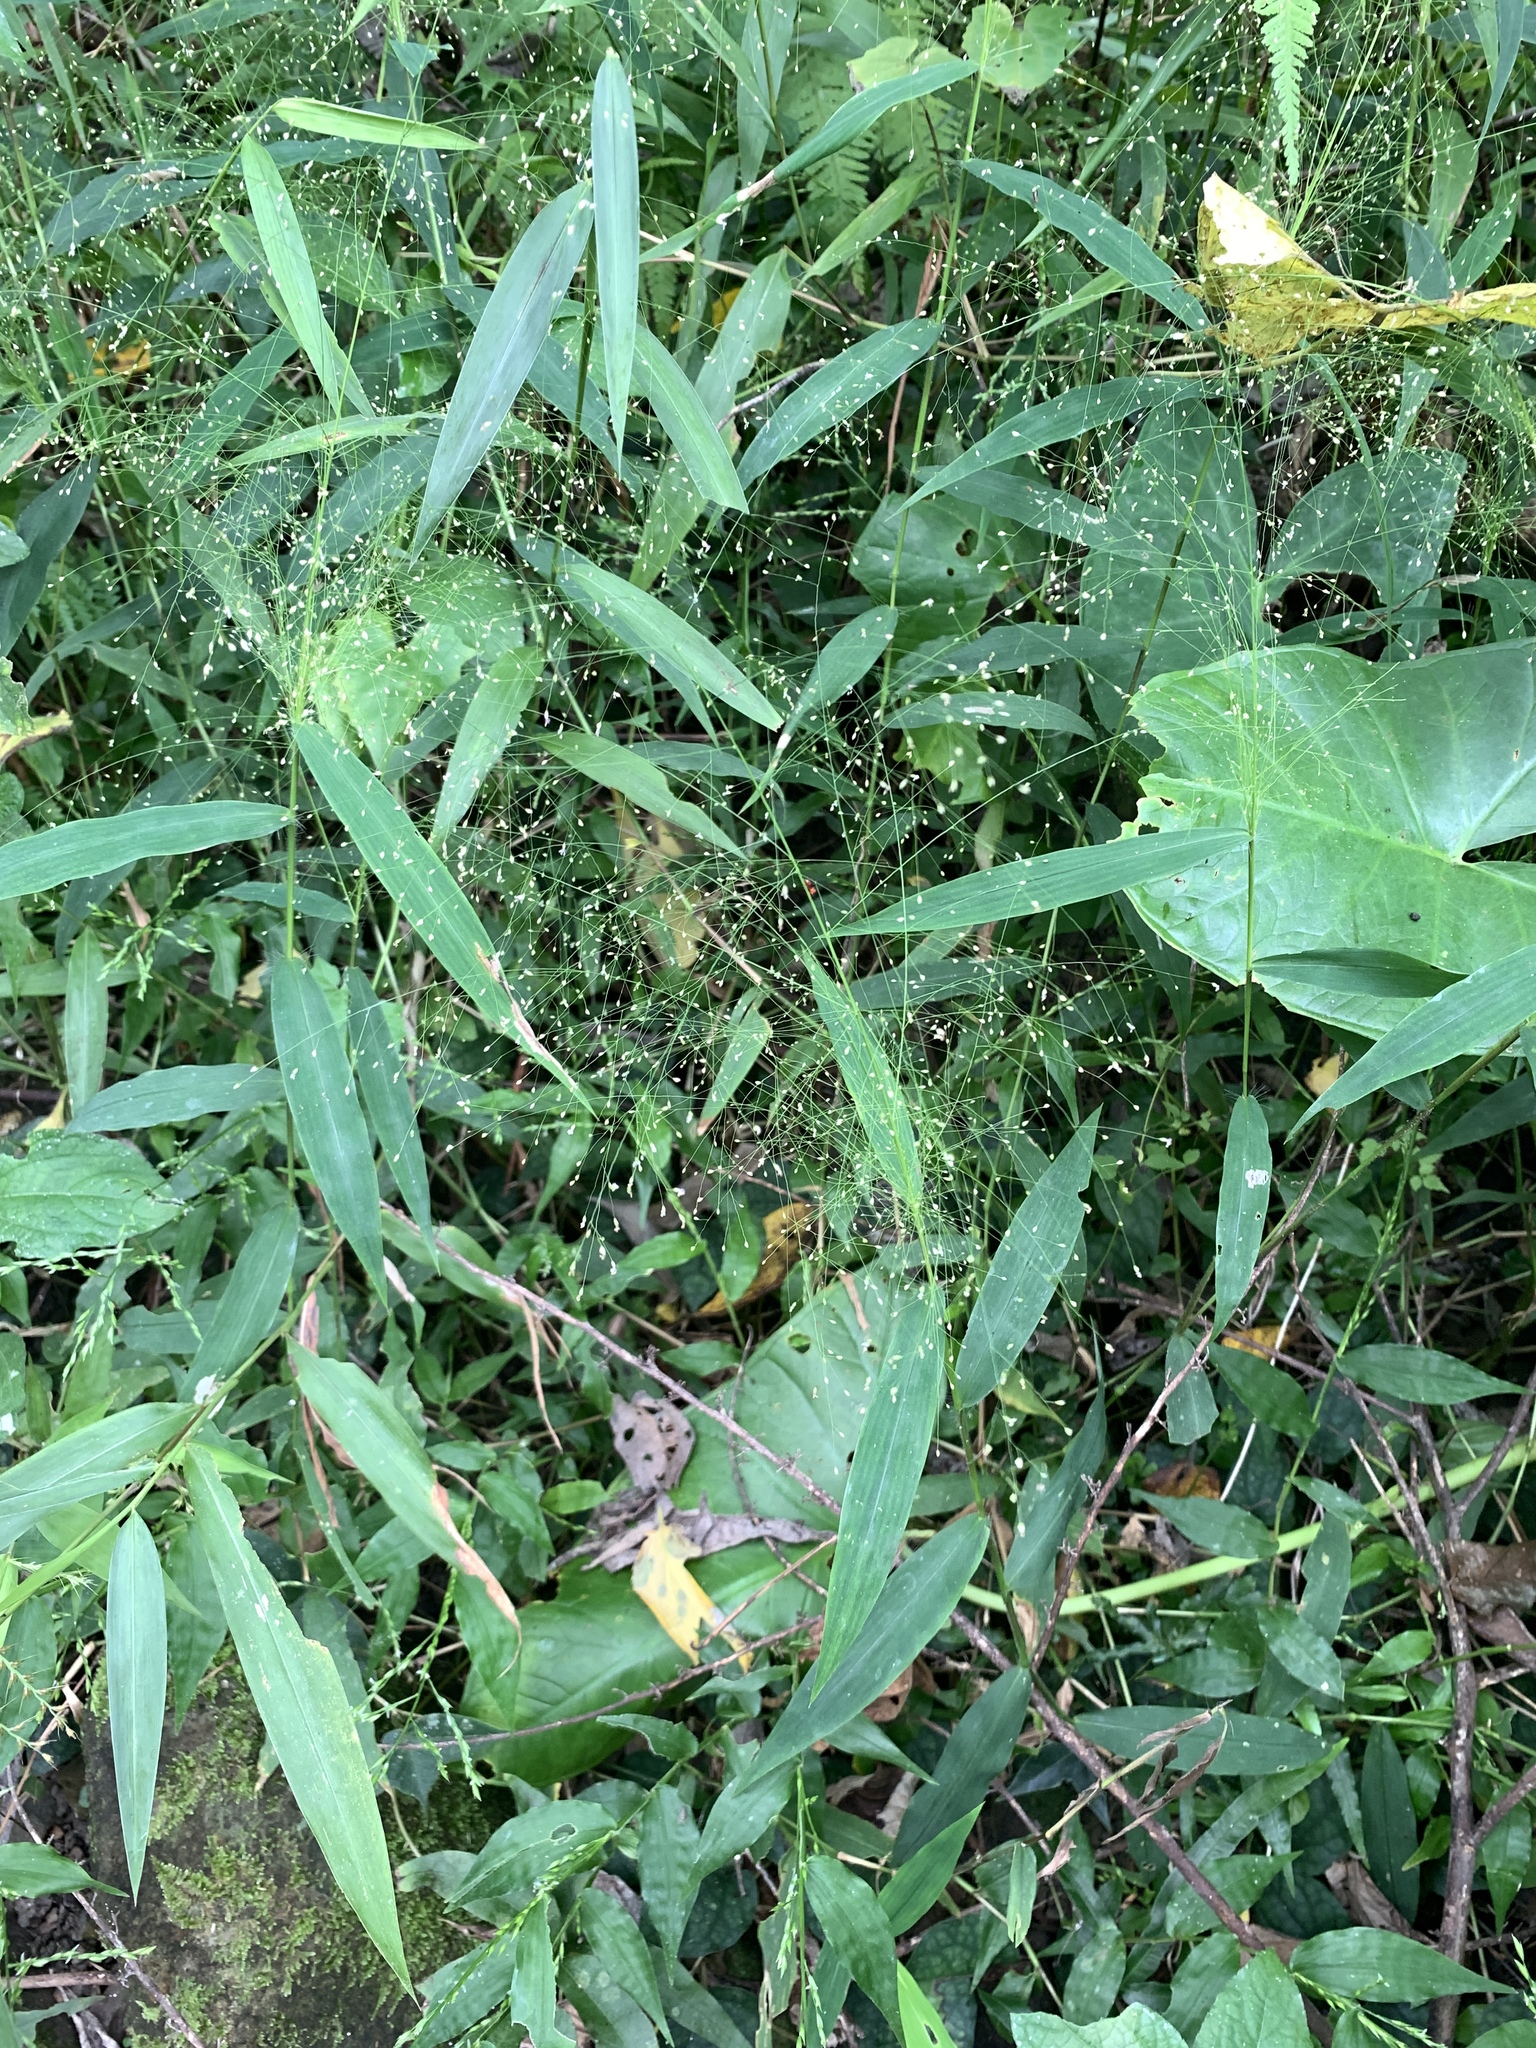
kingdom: Plantae
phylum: Tracheophyta
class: Liliopsida
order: Poales
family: Poaceae
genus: Cyrtococcum
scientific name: Cyrtococcum accrescens
